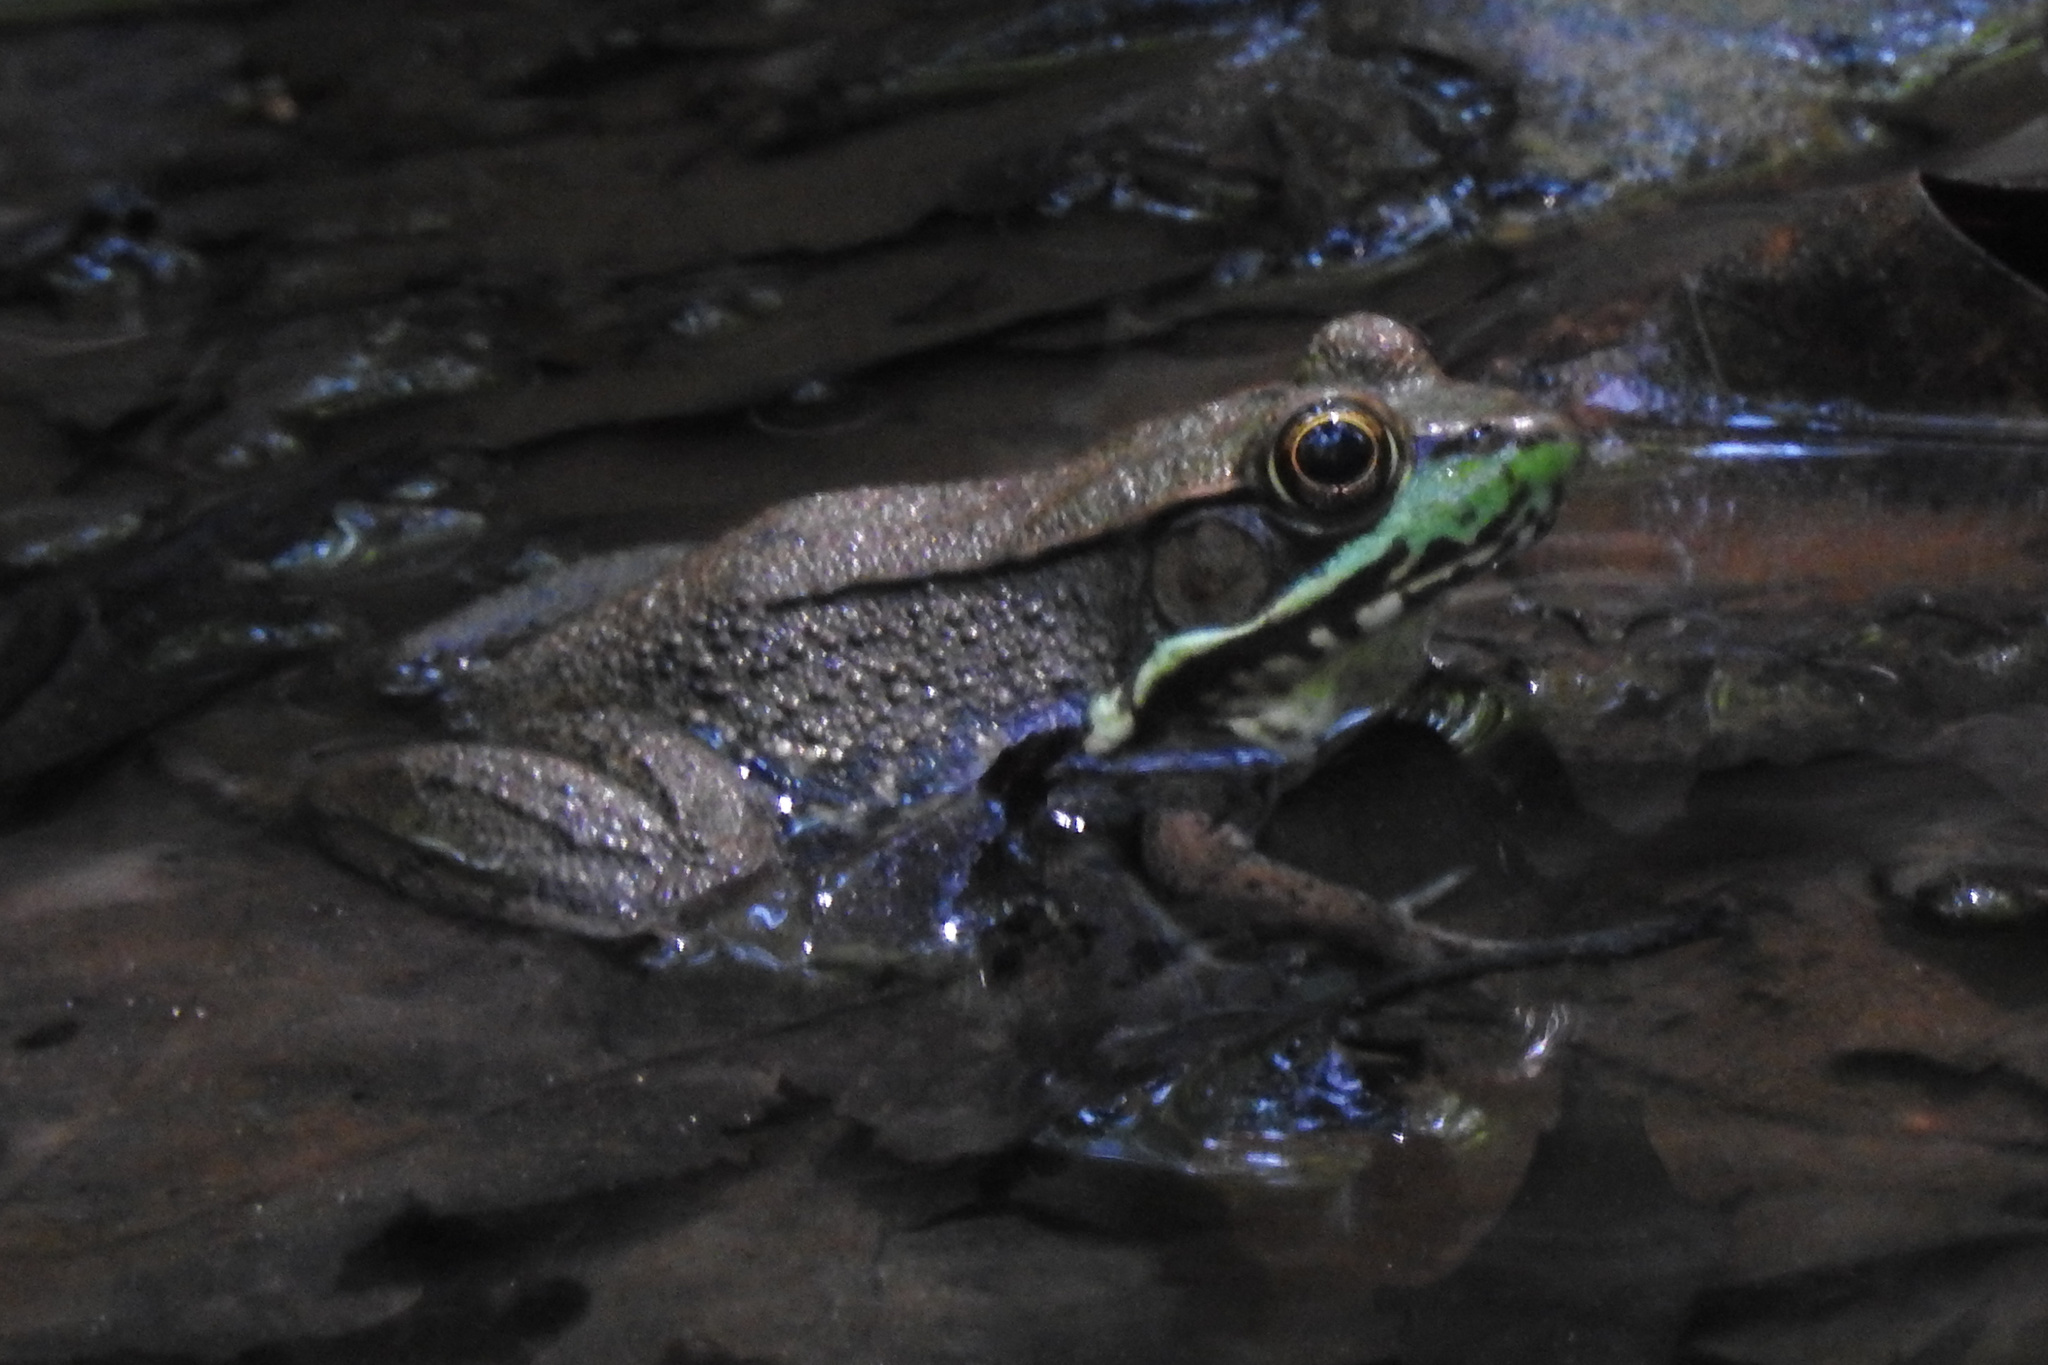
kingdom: Animalia
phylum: Chordata
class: Amphibia
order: Anura
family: Ranidae
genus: Lithobates
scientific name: Lithobates clamitans
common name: Green frog
